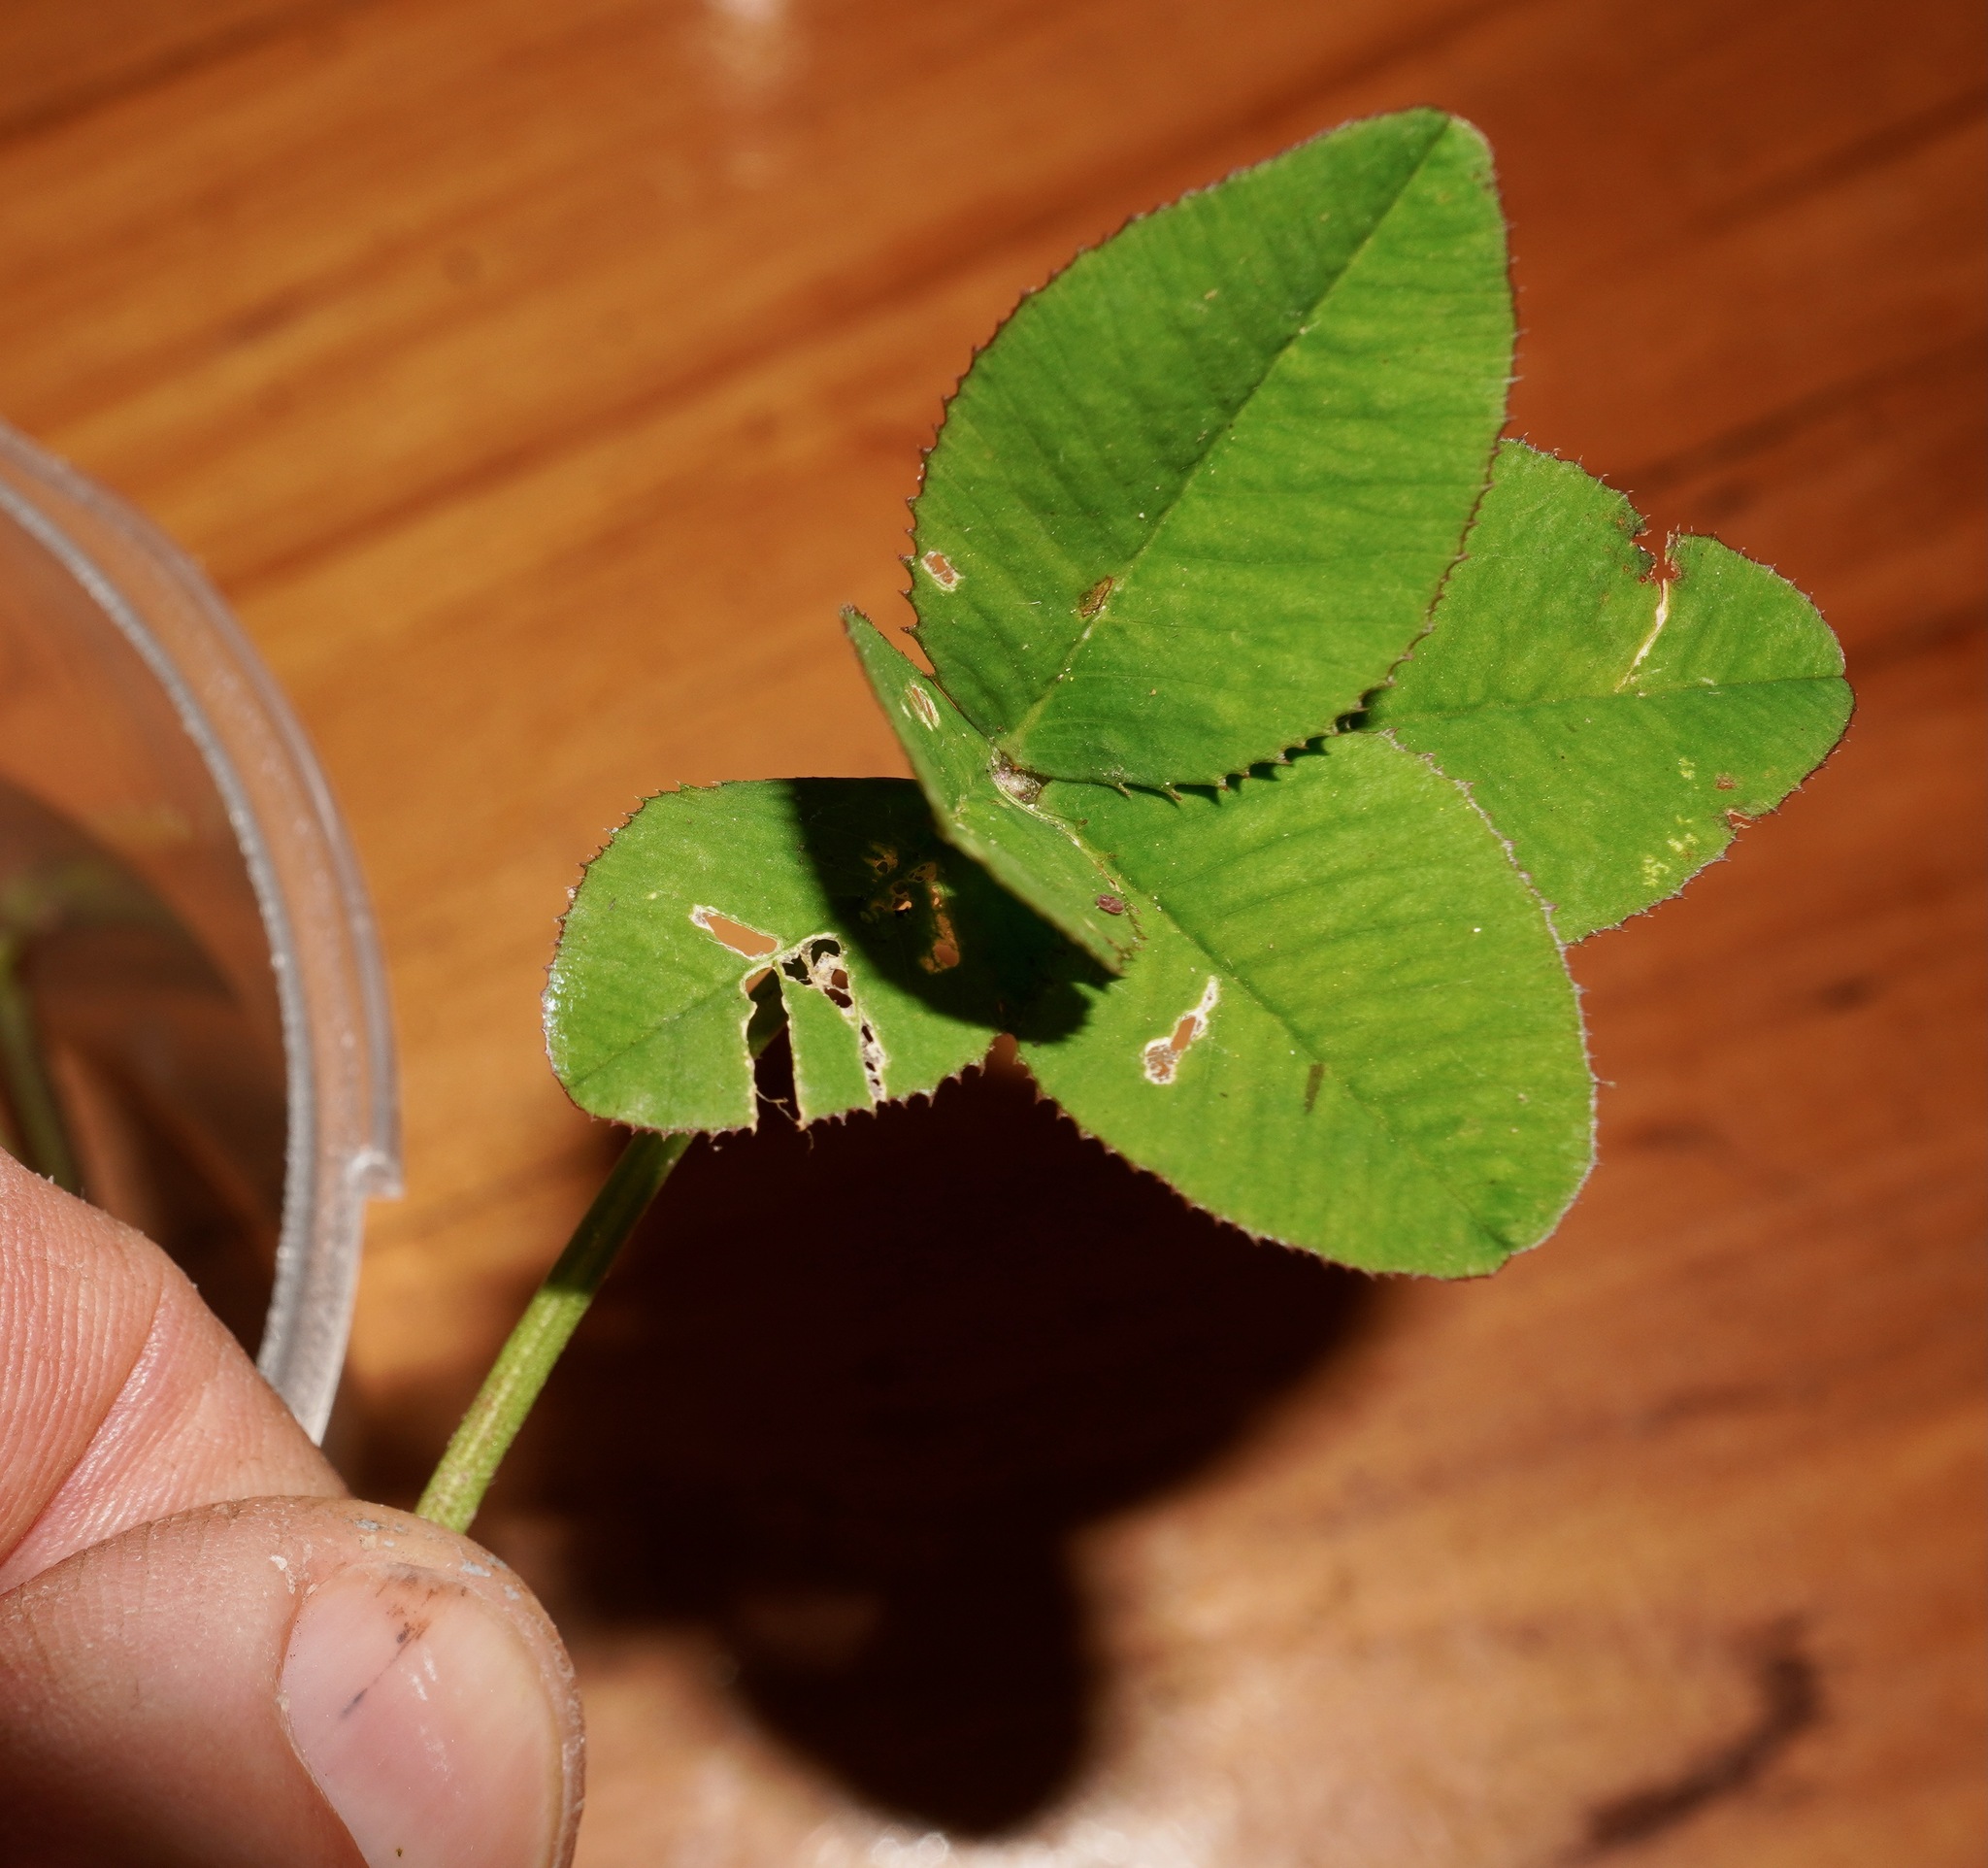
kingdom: Plantae
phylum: Tracheophyta
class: Magnoliopsida
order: Fabales
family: Fabaceae
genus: Trifolium
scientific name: Trifolium repens
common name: White clover
